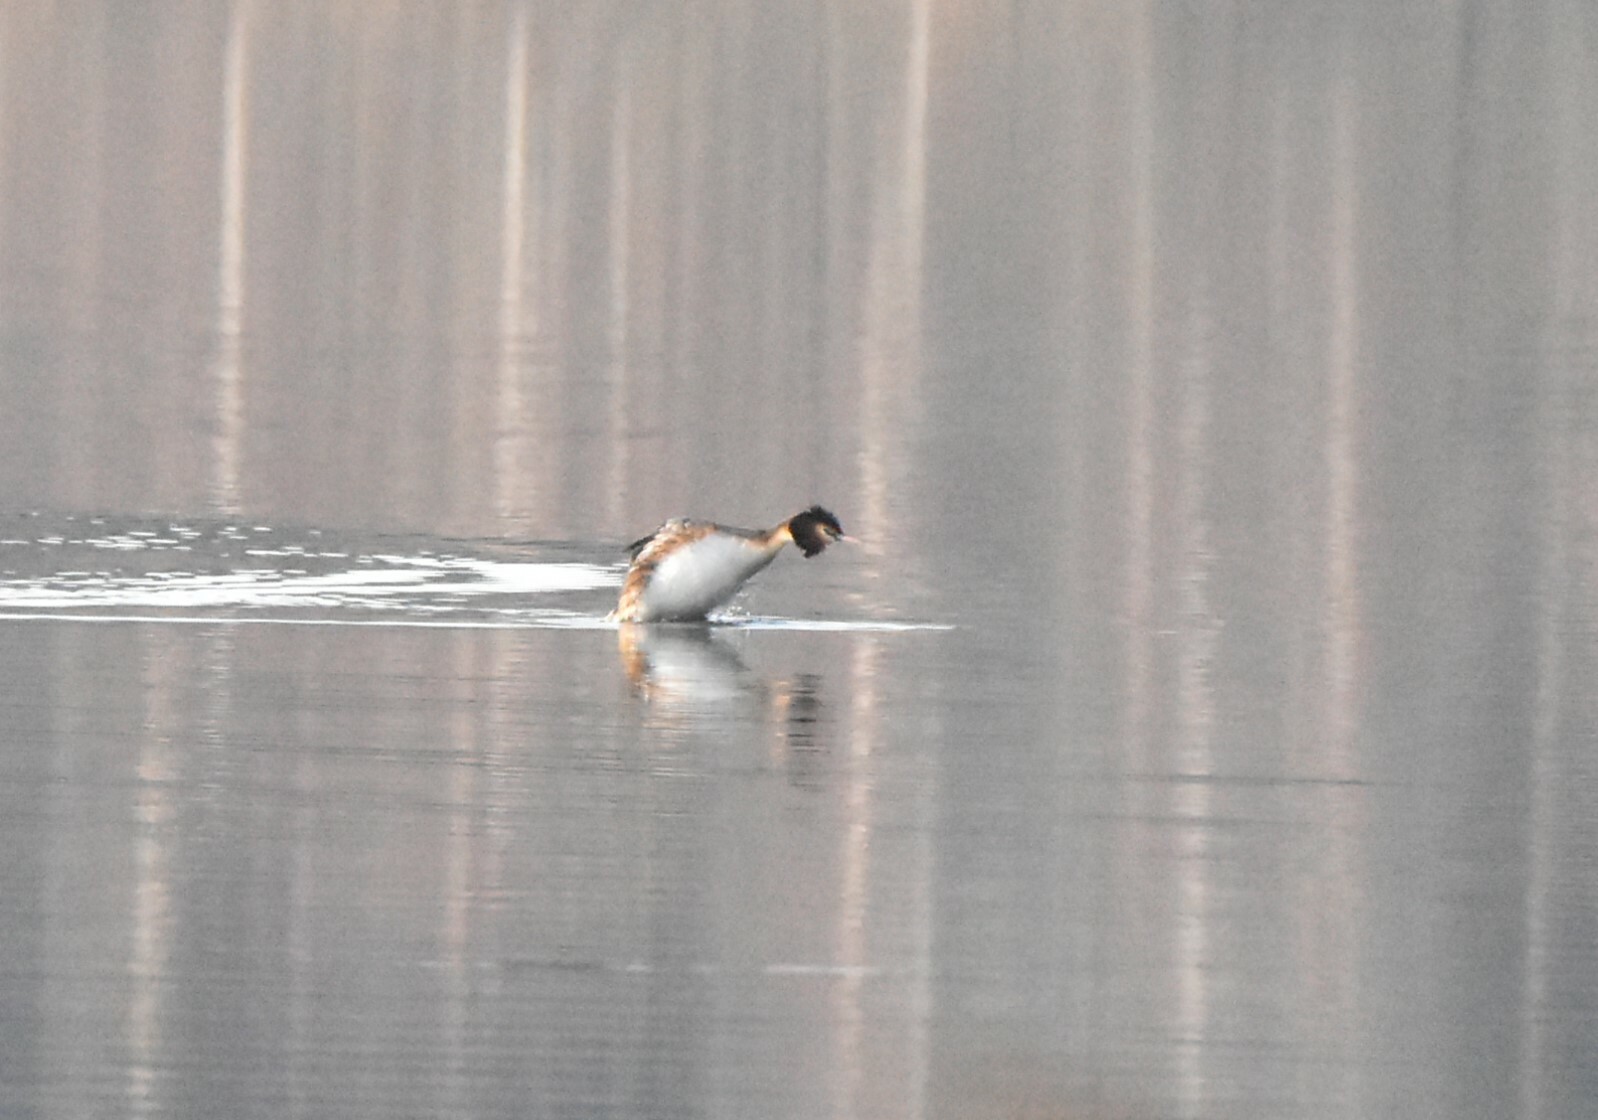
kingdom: Animalia
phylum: Chordata
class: Aves
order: Podicipediformes
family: Podicipedidae
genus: Podiceps
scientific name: Podiceps cristatus
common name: Great crested grebe
